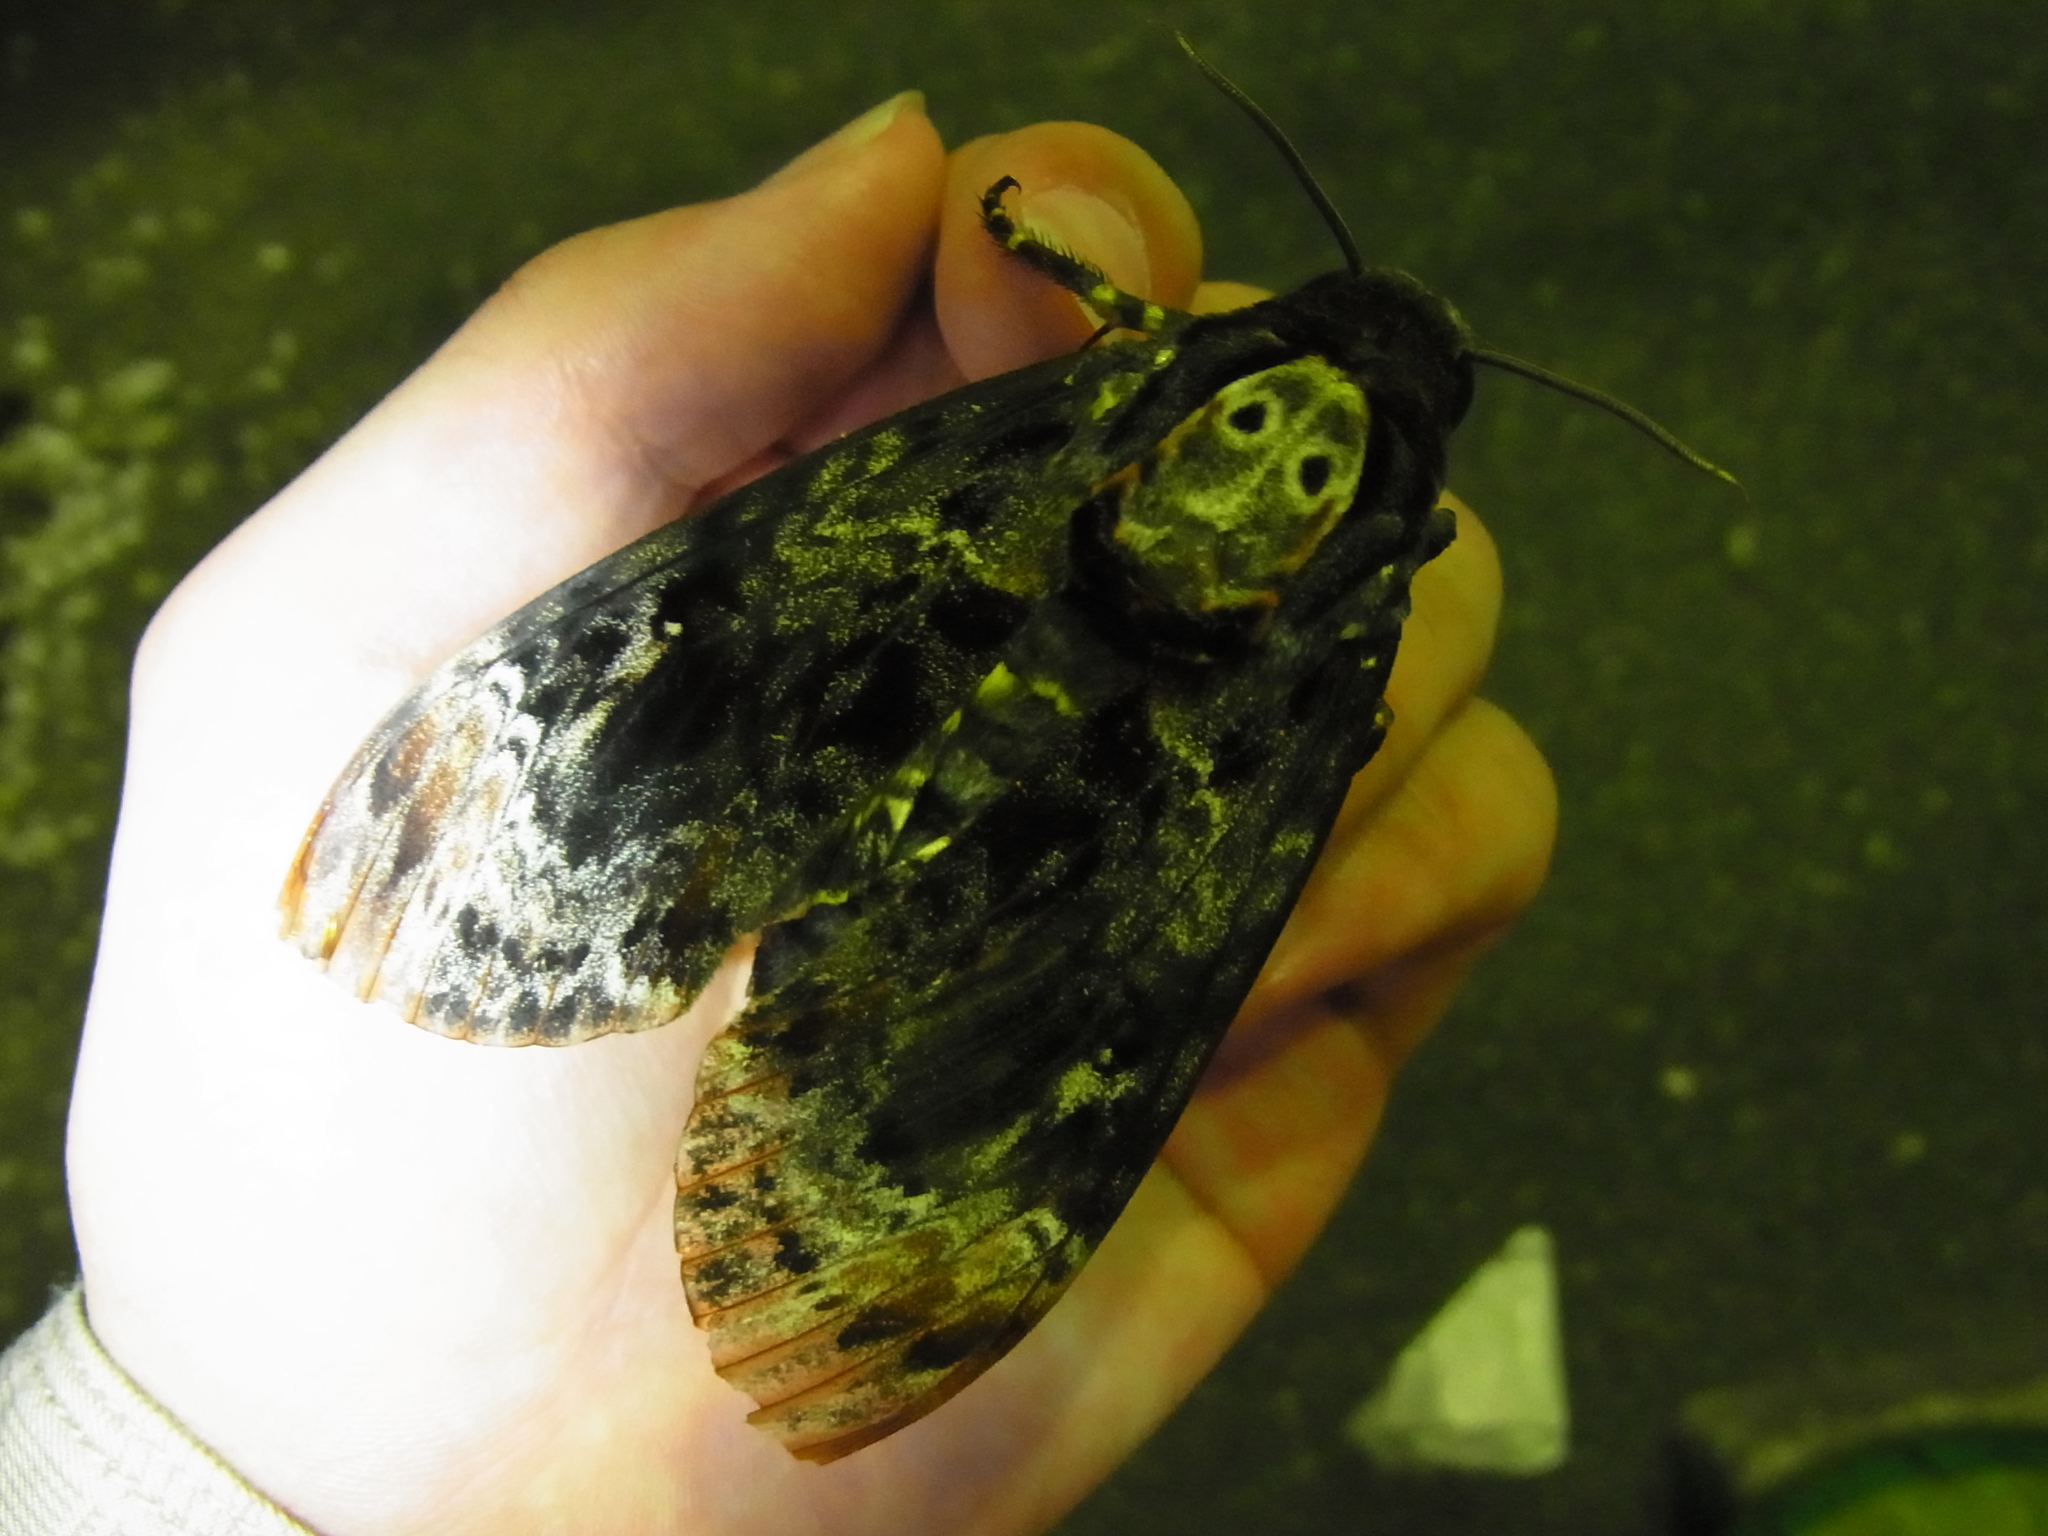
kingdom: Animalia
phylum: Arthropoda
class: Insecta
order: Lepidoptera
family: Sphingidae
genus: Acherontia
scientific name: Acherontia lachesis
